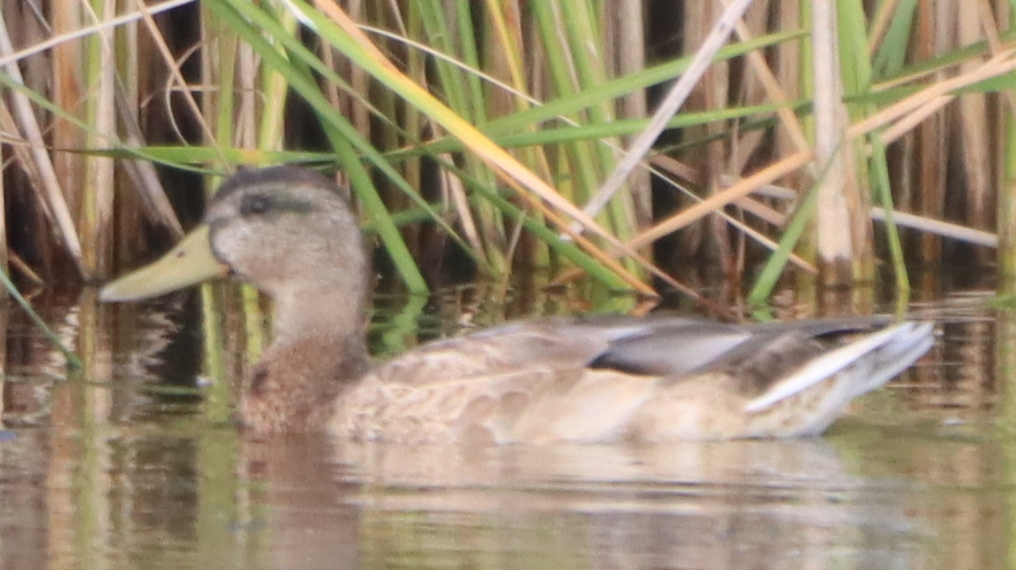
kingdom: Animalia
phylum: Chordata
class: Aves
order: Anseriformes
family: Anatidae
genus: Anas
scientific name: Anas platyrhynchos
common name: Mallard
